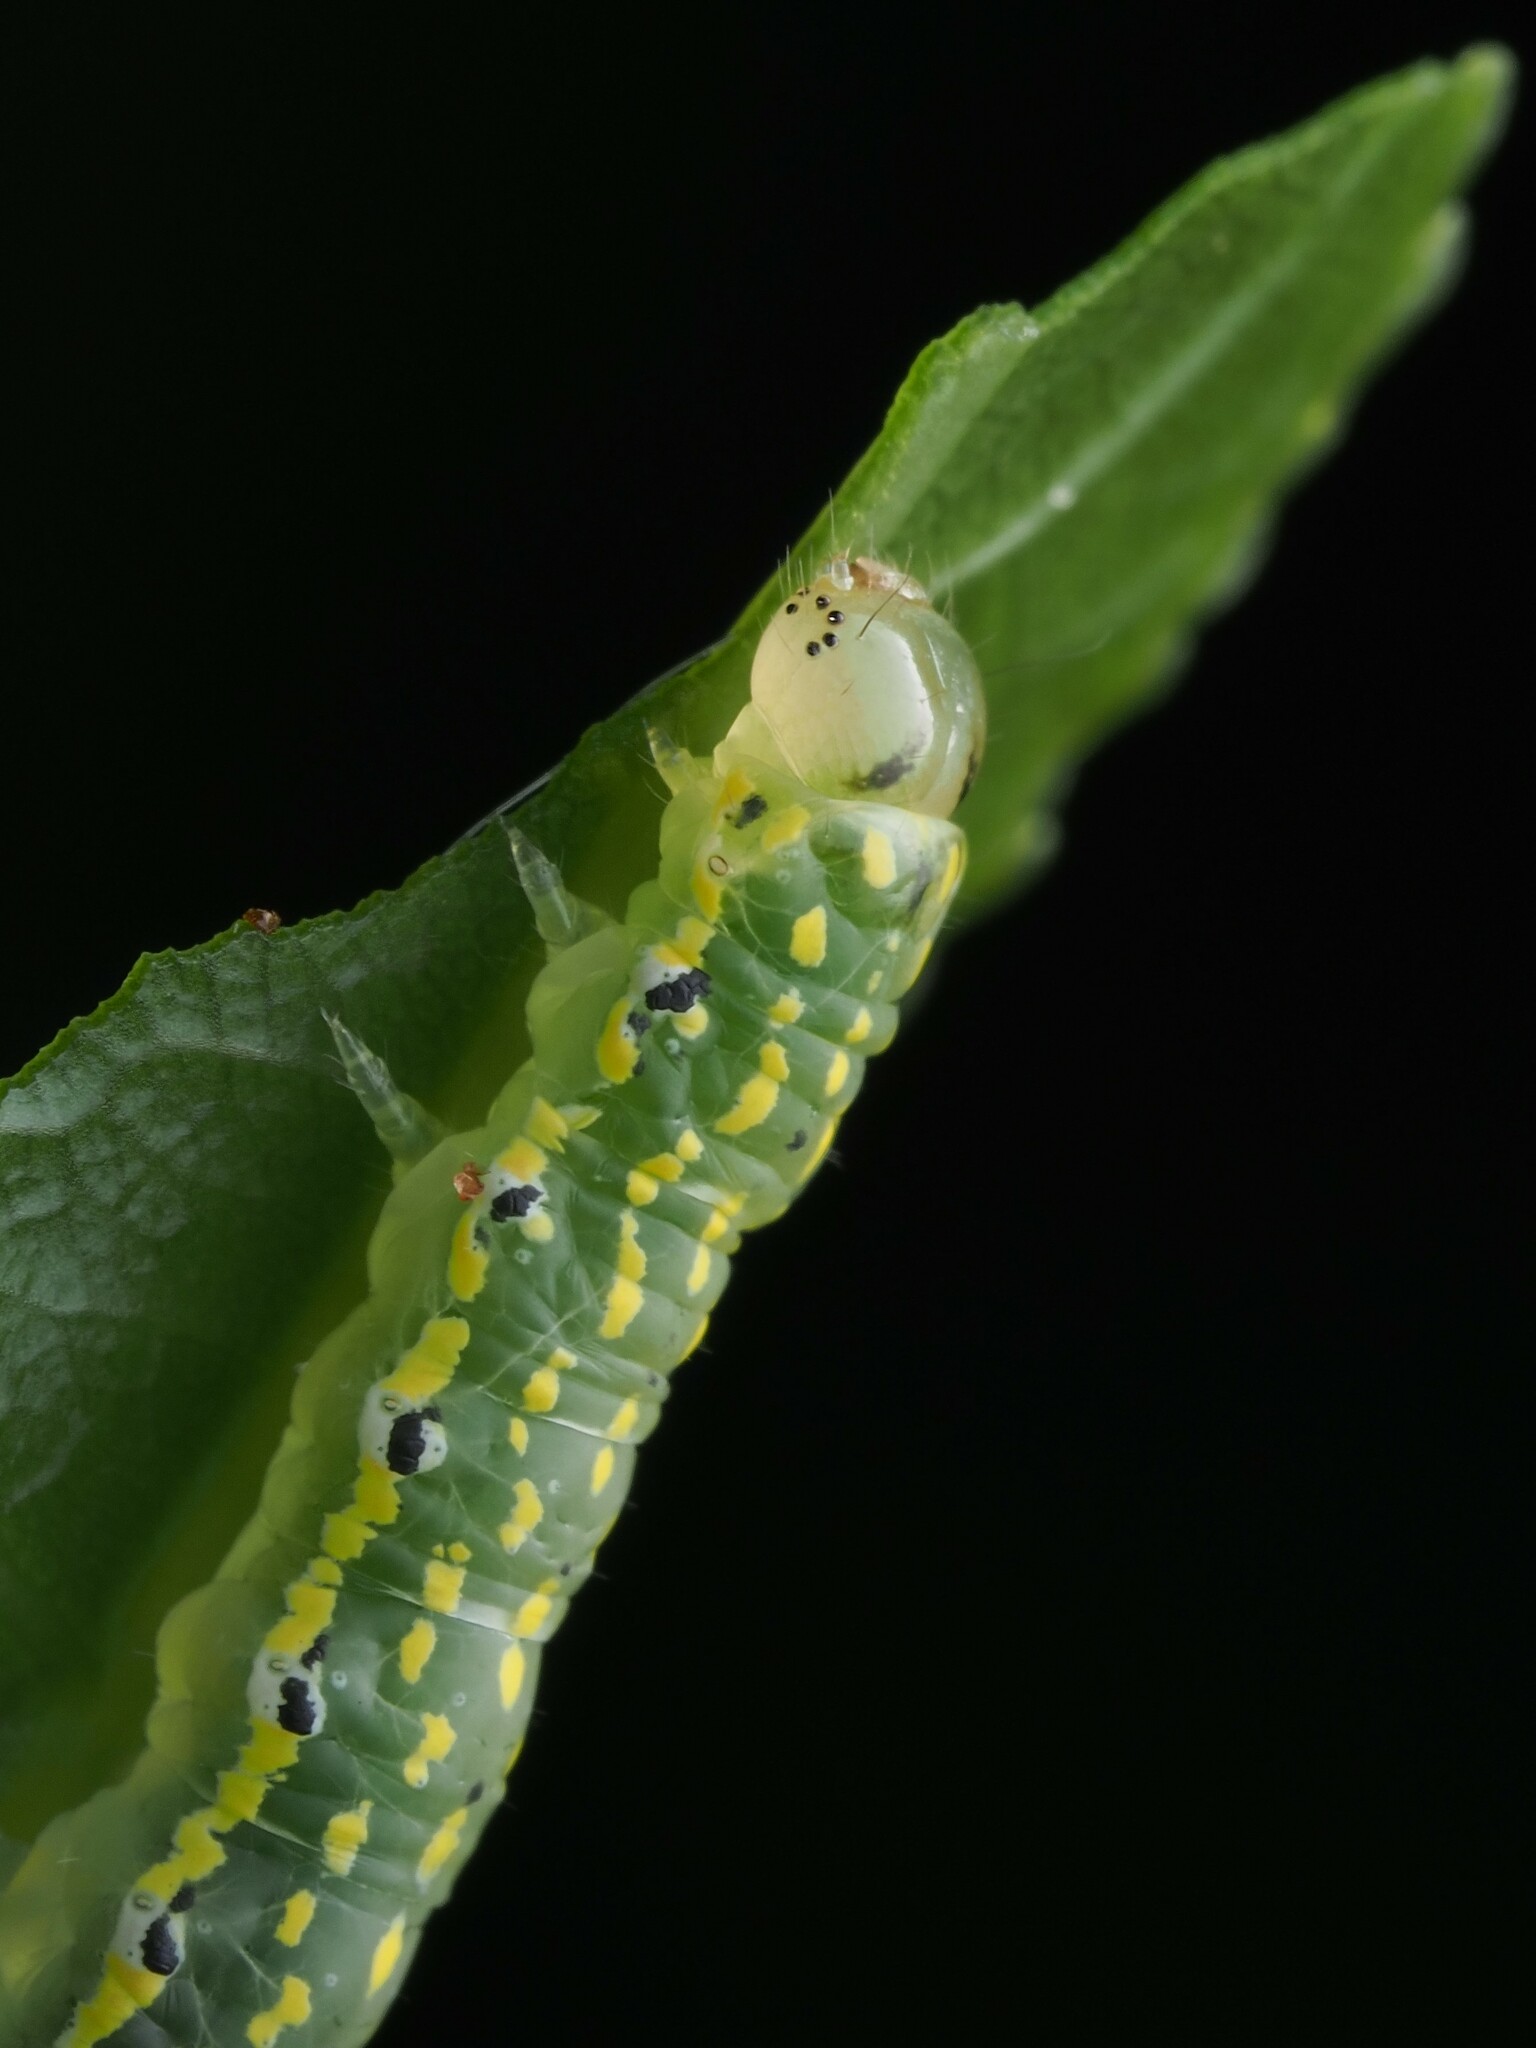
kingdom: Animalia
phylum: Arthropoda
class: Insecta
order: Lepidoptera
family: Noctuidae
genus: Austramathes
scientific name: Austramathes purpurea
